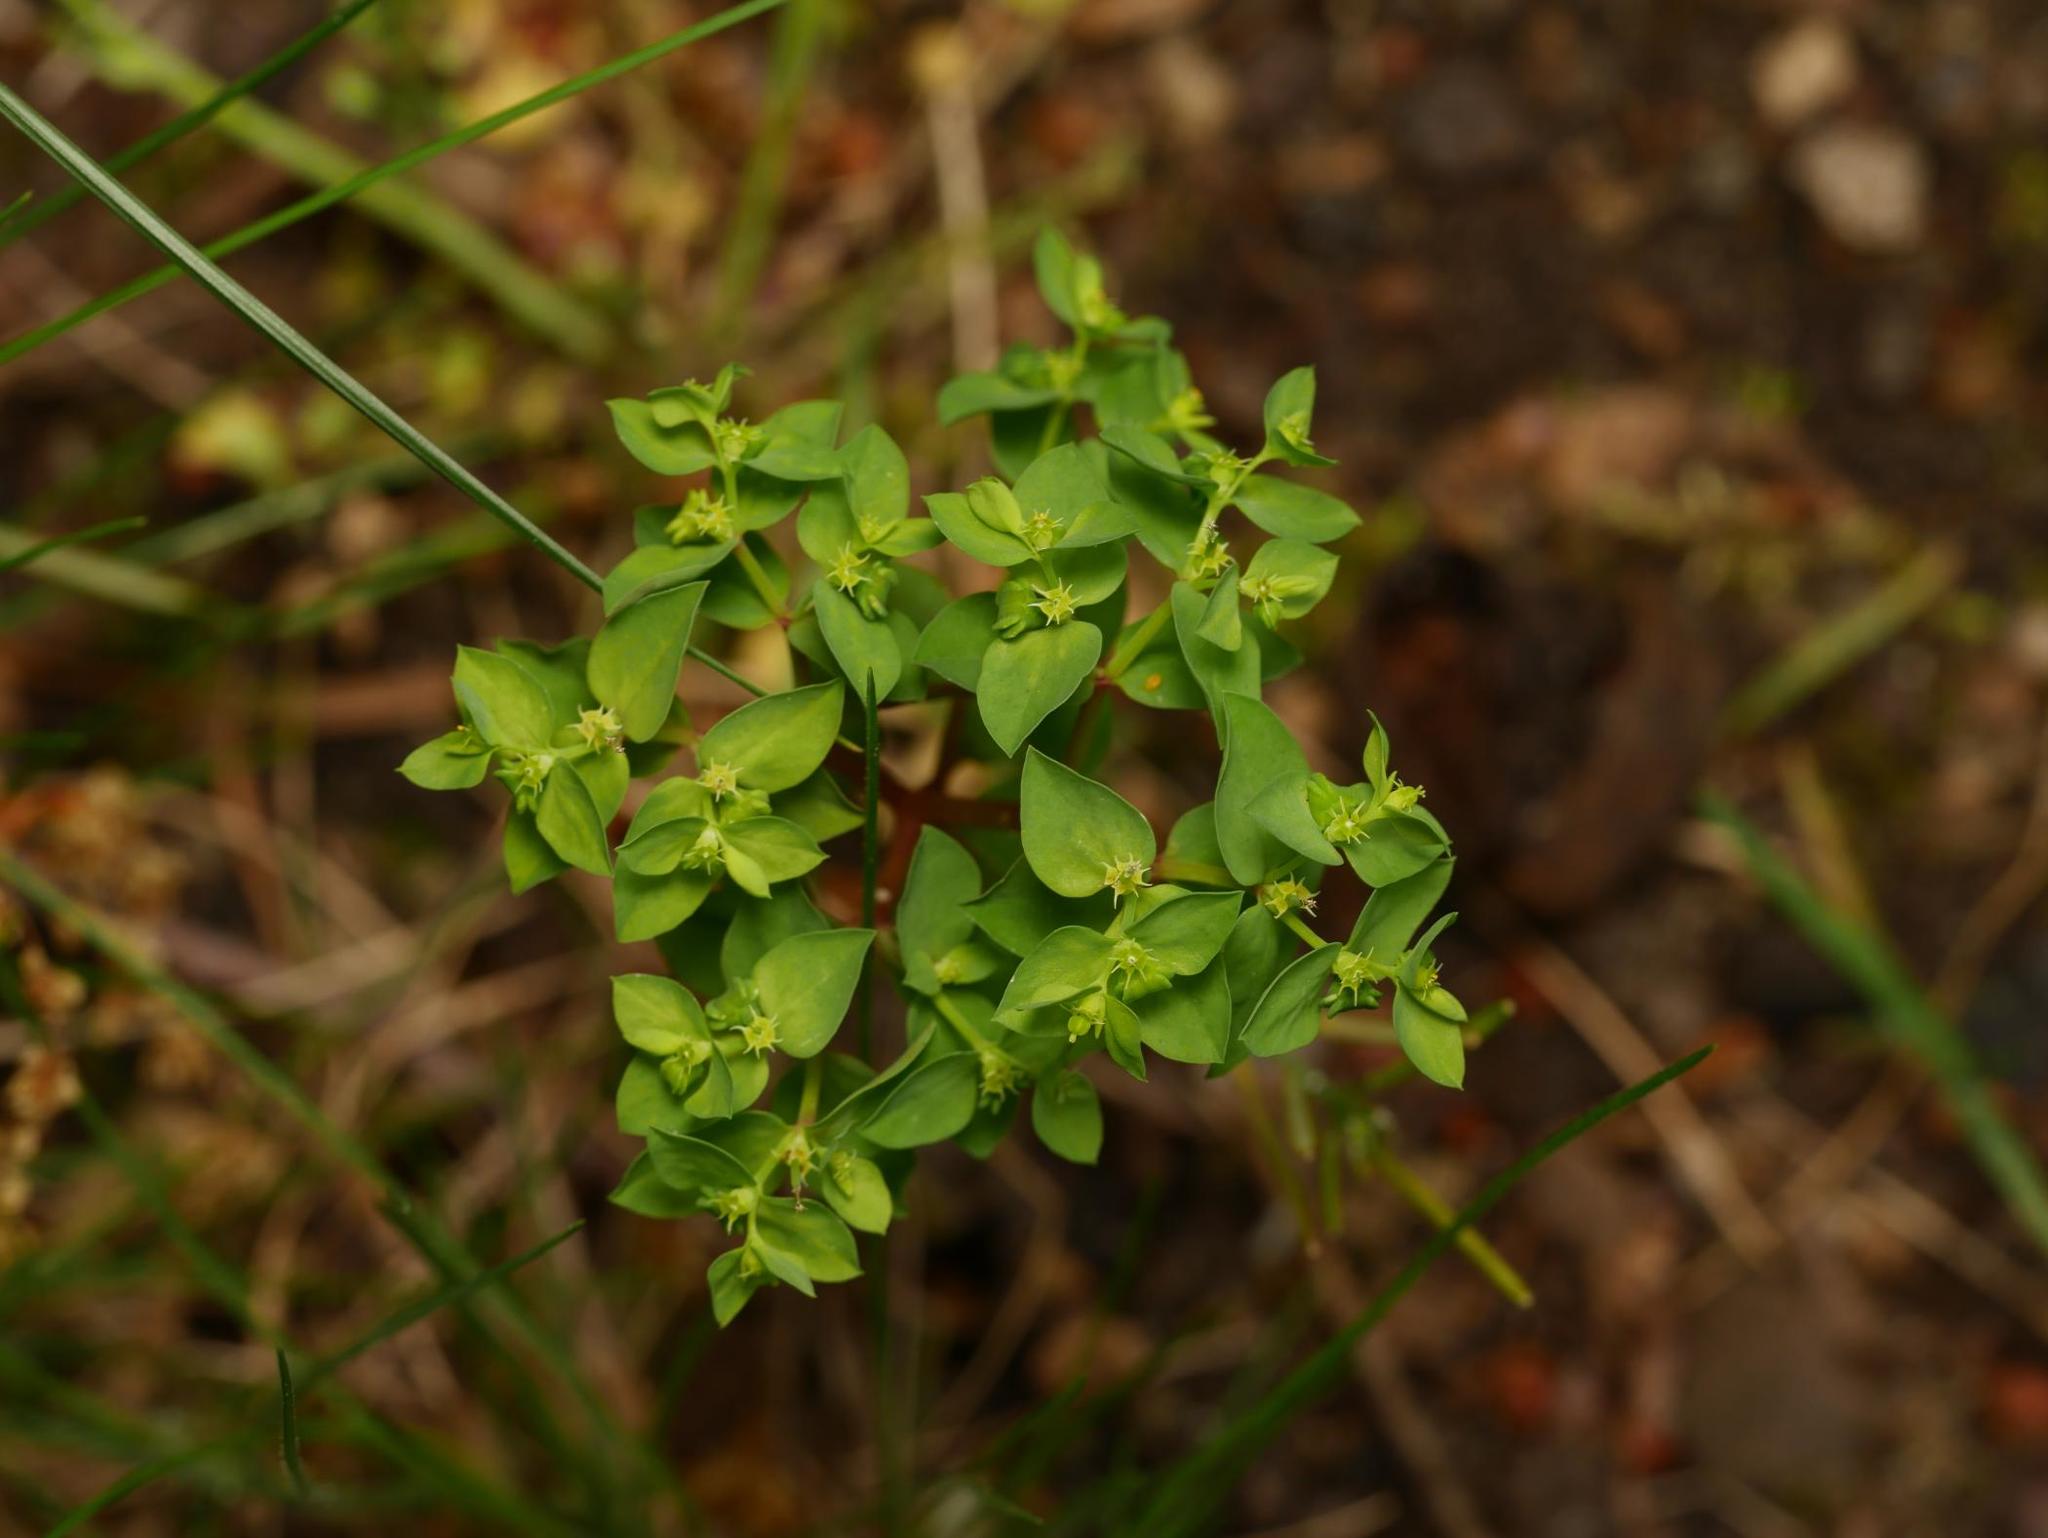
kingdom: Plantae
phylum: Tracheophyta
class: Magnoliopsida
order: Malpighiales
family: Euphorbiaceae
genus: Euphorbia
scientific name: Euphorbia peplus
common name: Petty spurge
